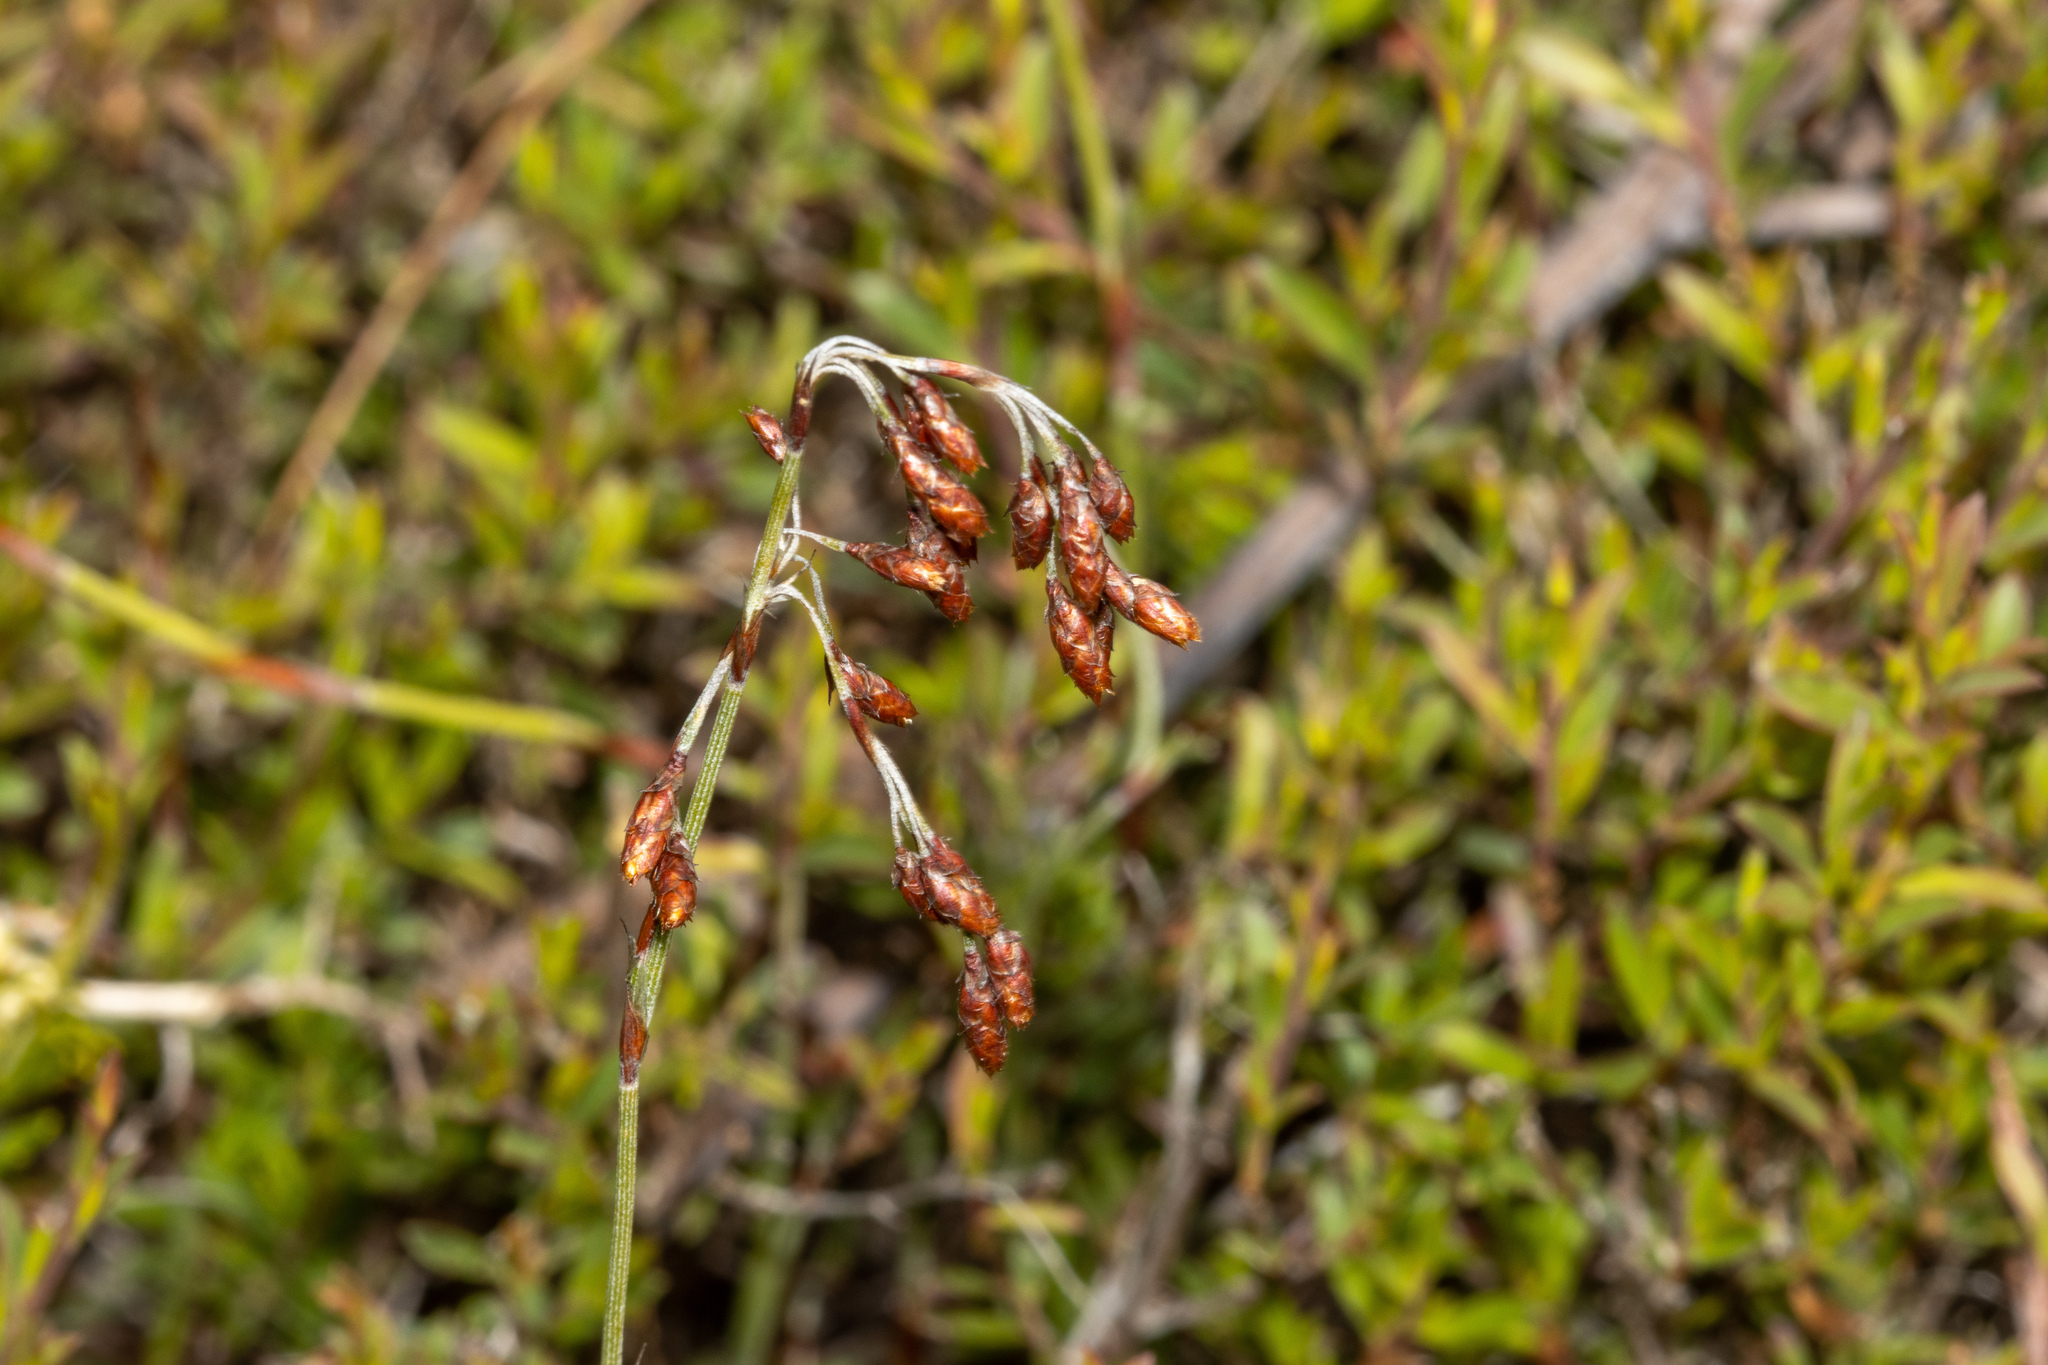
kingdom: Plantae
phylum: Tracheophyta
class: Liliopsida
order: Poales
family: Restionaceae
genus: Hypolaena
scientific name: Hypolaena fastigiata
